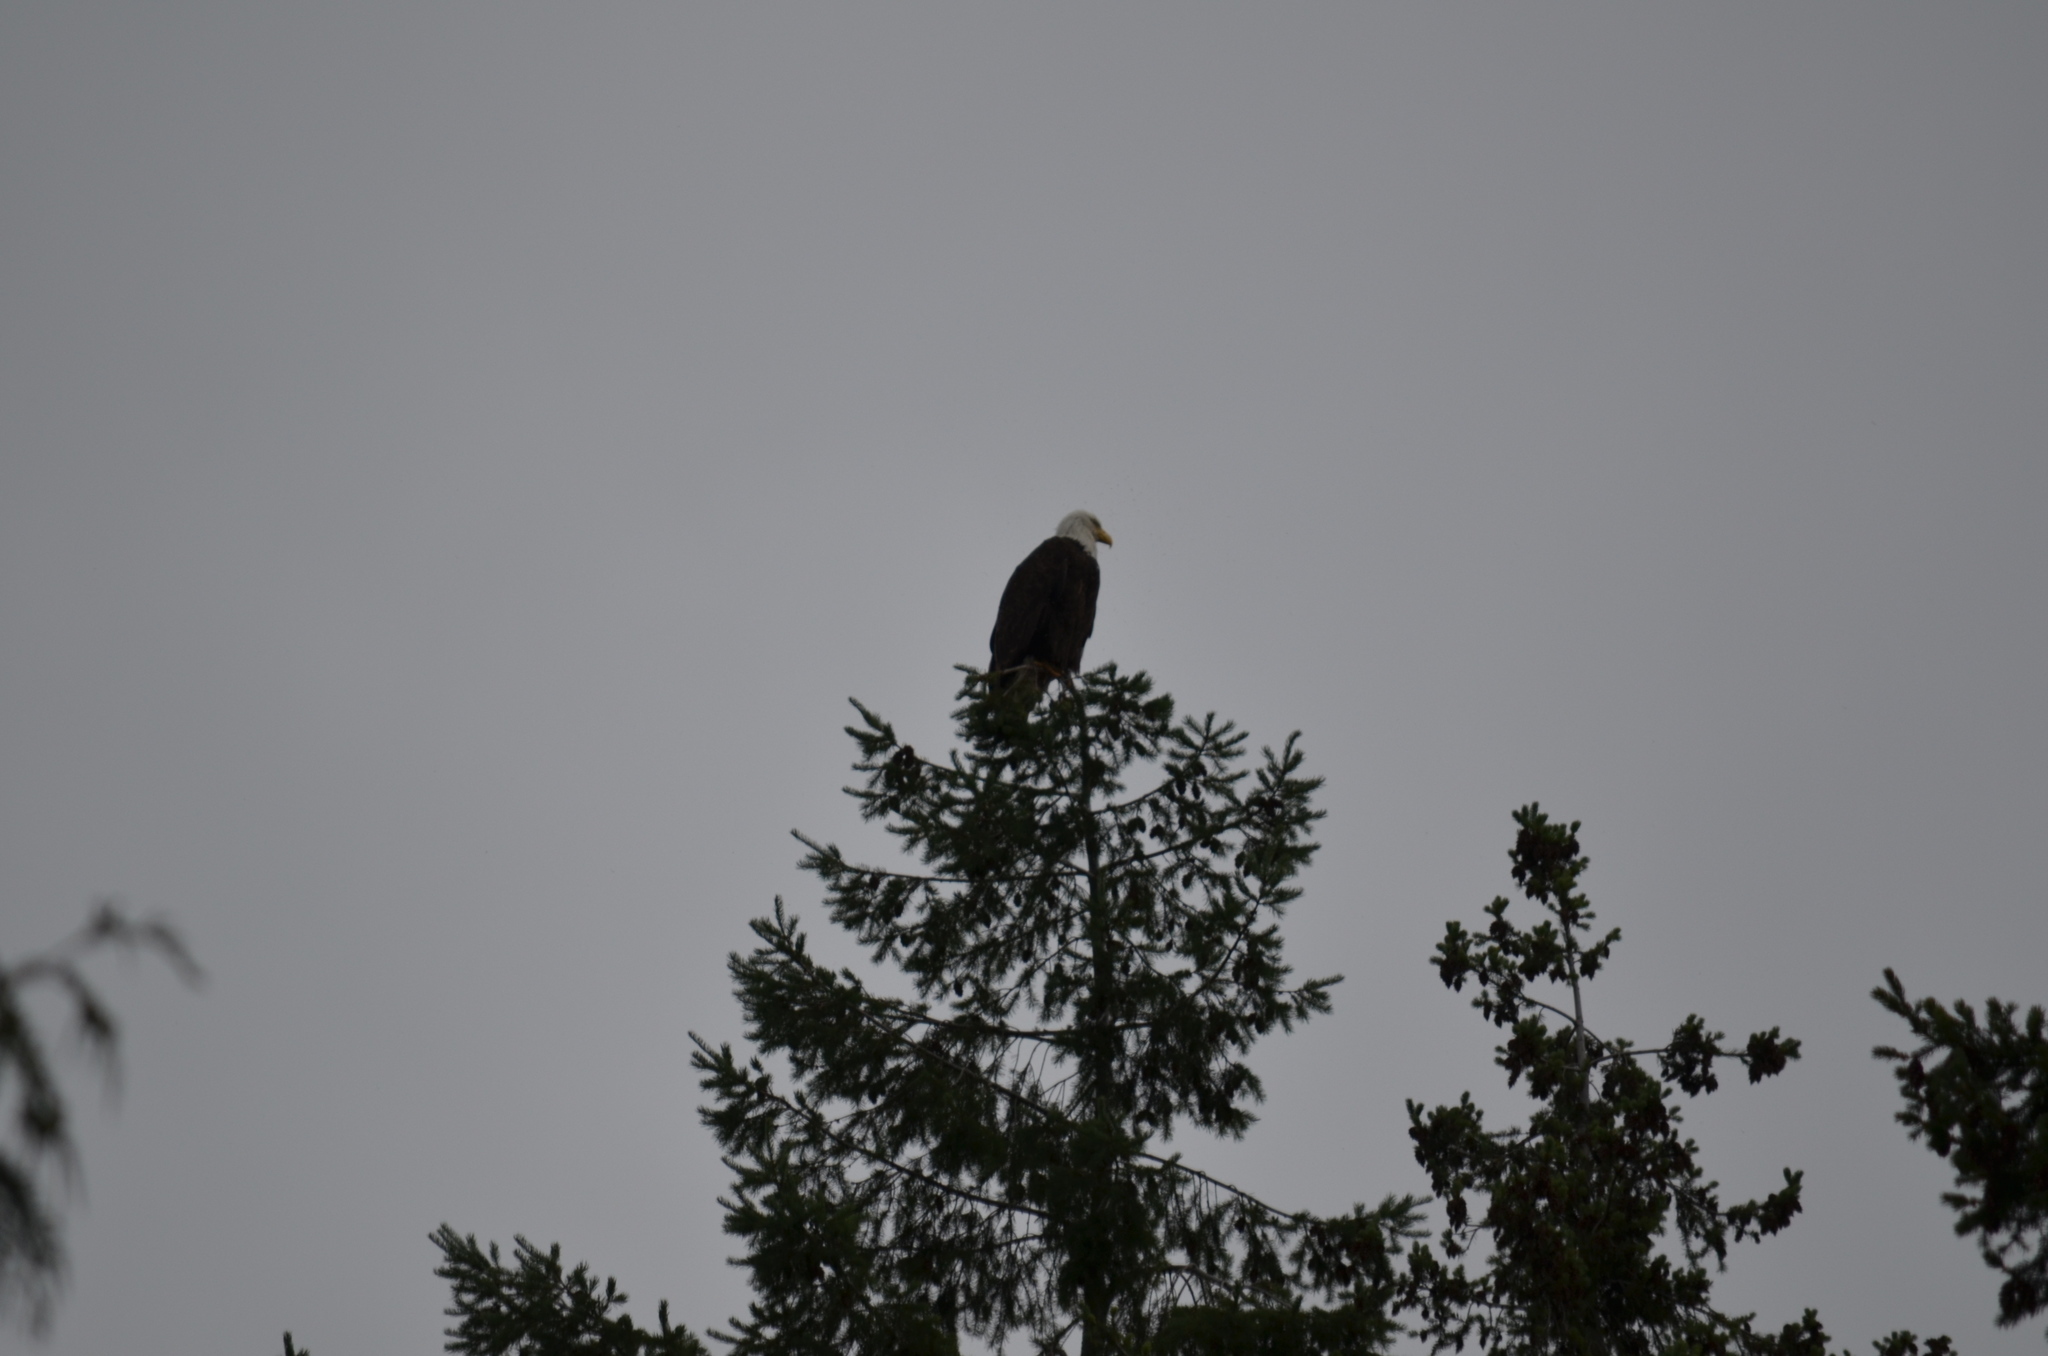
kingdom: Animalia
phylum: Chordata
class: Aves
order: Accipitriformes
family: Accipitridae
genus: Haliaeetus
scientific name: Haliaeetus leucocephalus
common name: Bald eagle
